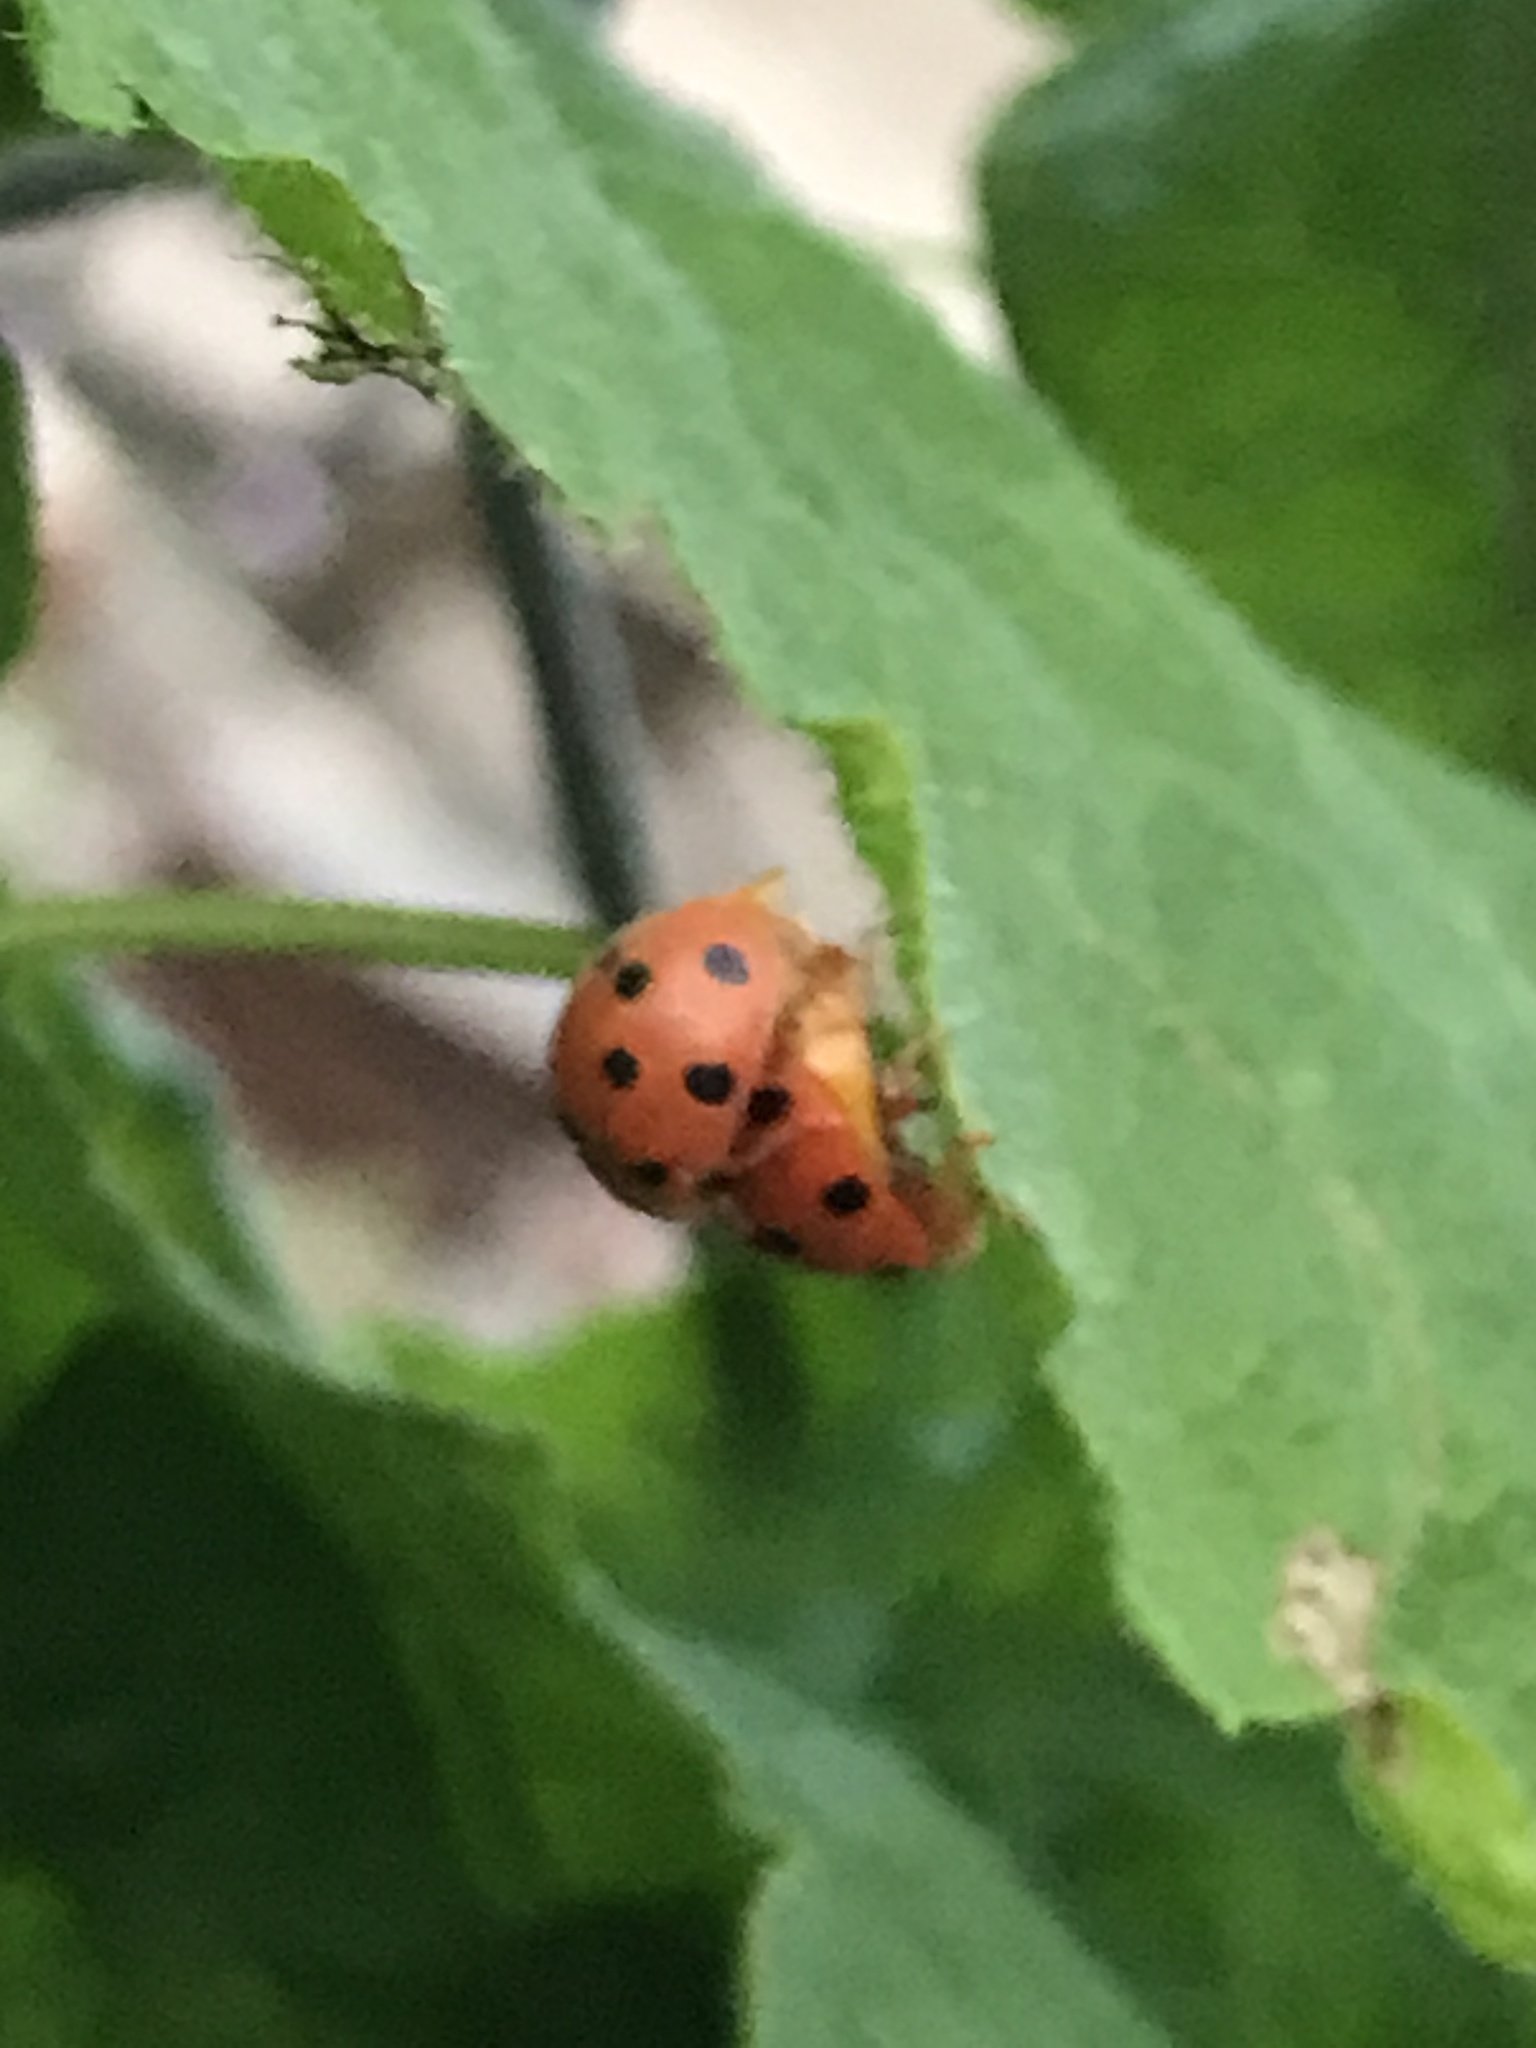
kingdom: Animalia
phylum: Arthropoda
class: Insecta
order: Coleoptera
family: Coccinellidae
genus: Henosepilachna
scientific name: Henosepilachna argus
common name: Bryony ladybird
